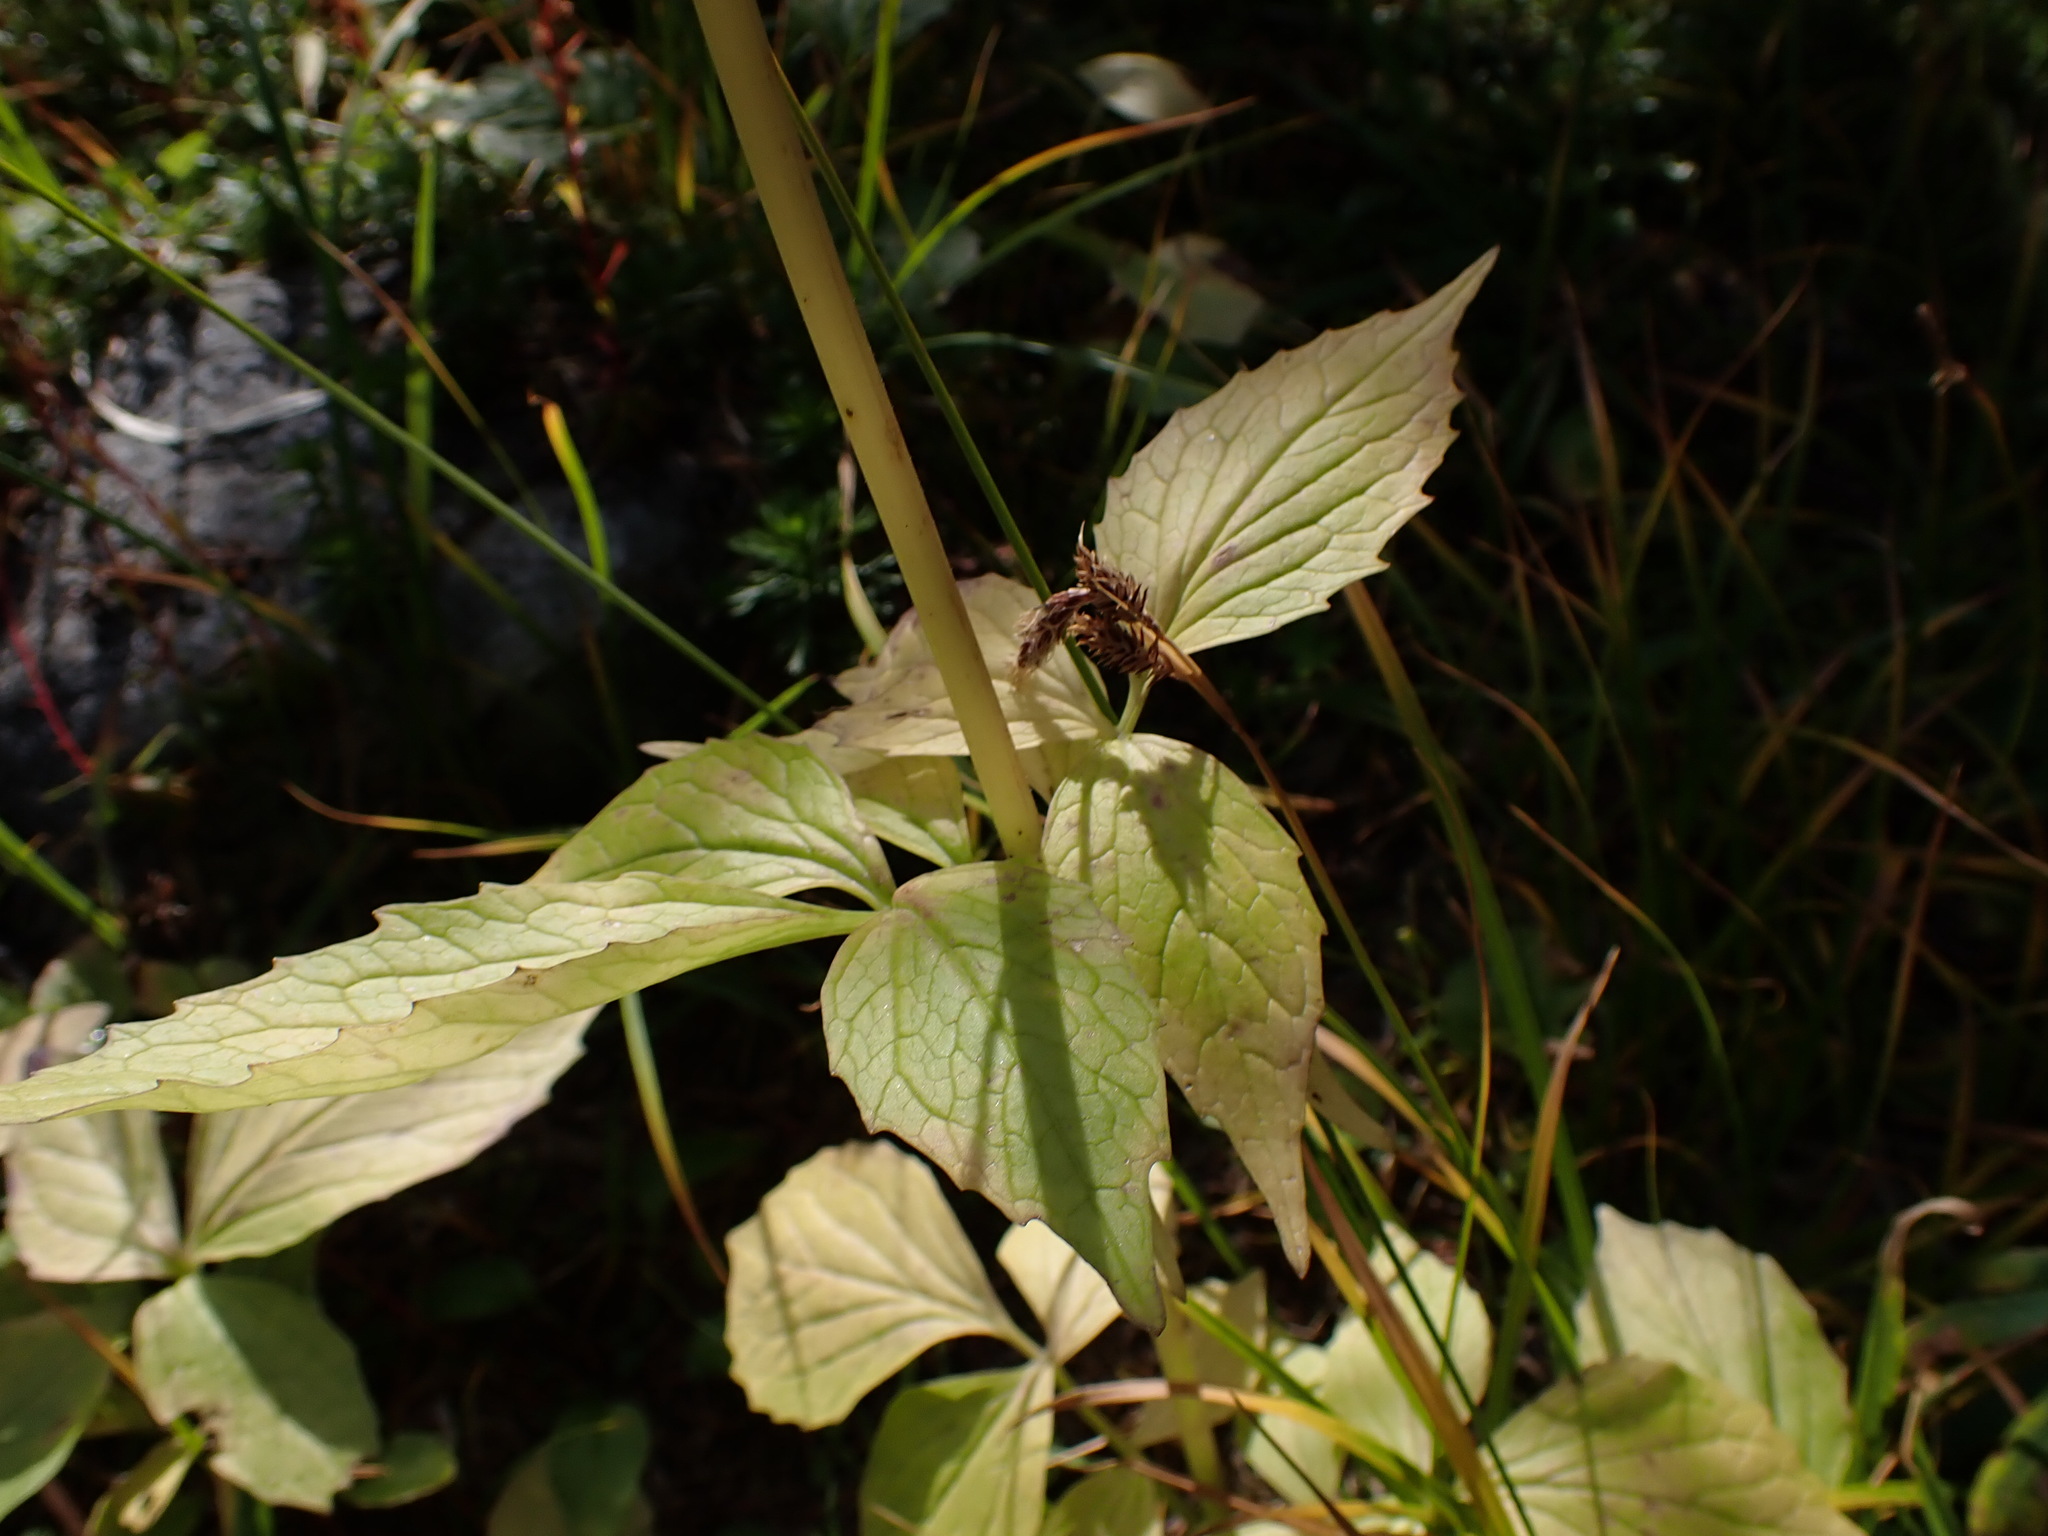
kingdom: Plantae
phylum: Tracheophyta
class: Magnoliopsida
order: Dipsacales
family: Caprifoliaceae
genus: Valeriana
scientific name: Valeriana sitchensis
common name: Pacific valerian
